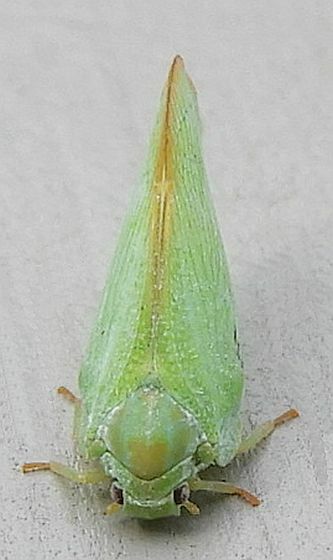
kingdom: Animalia
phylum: Arthropoda
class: Insecta
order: Hemiptera
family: Flatidae
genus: Ormenoides
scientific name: Ormenoides venusta
